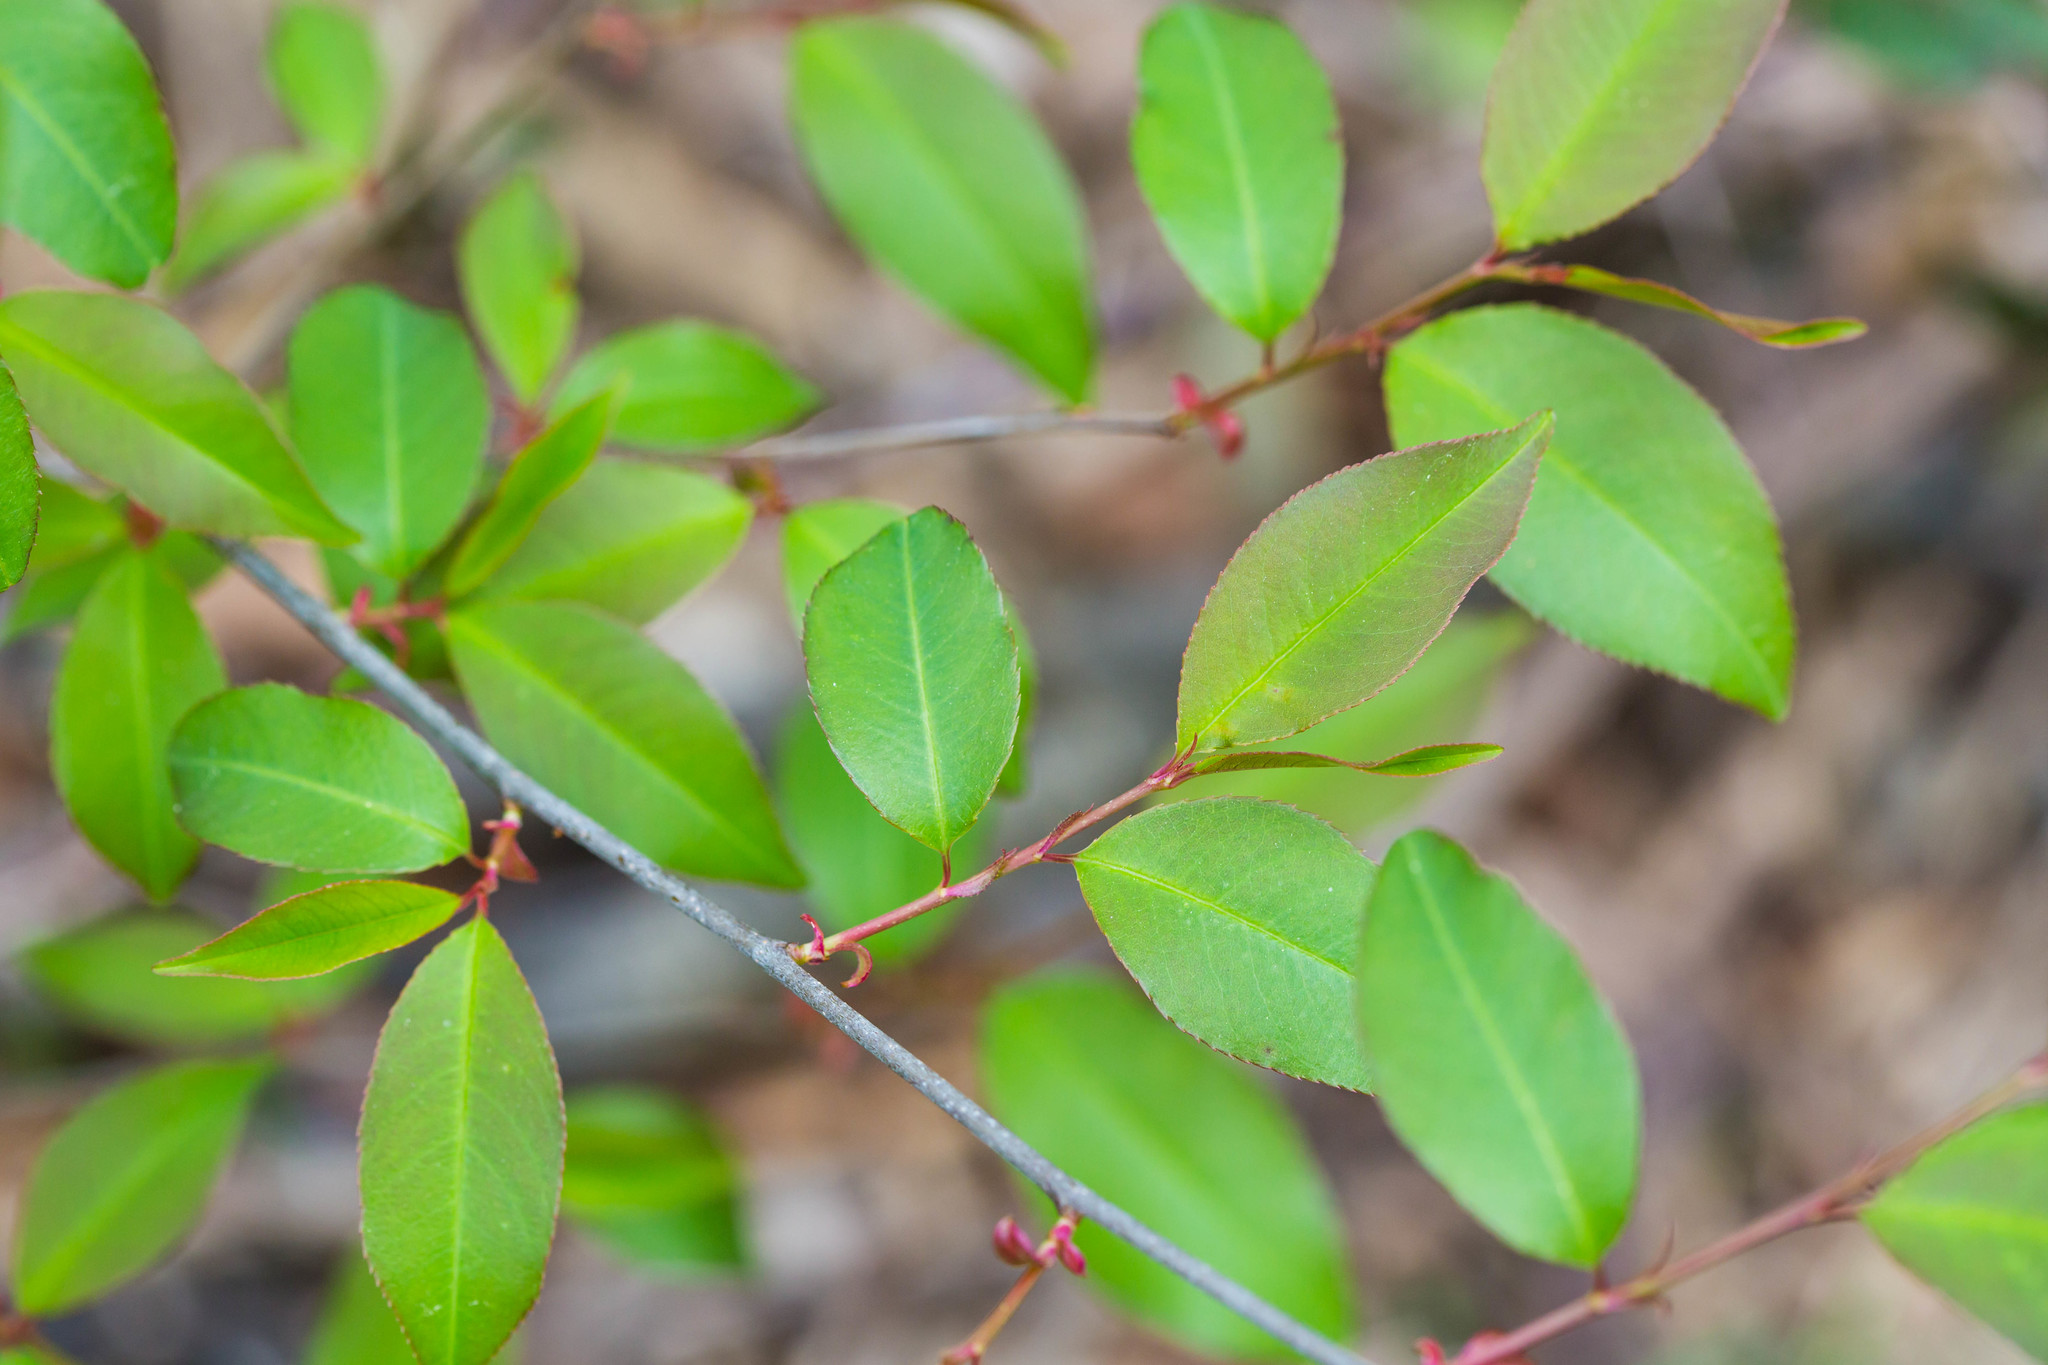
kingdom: Plantae
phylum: Tracheophyta
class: Magnoliopsida
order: Rosales
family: Rosaceae
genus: Prunus
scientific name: Prunus serotina
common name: Black cherry
